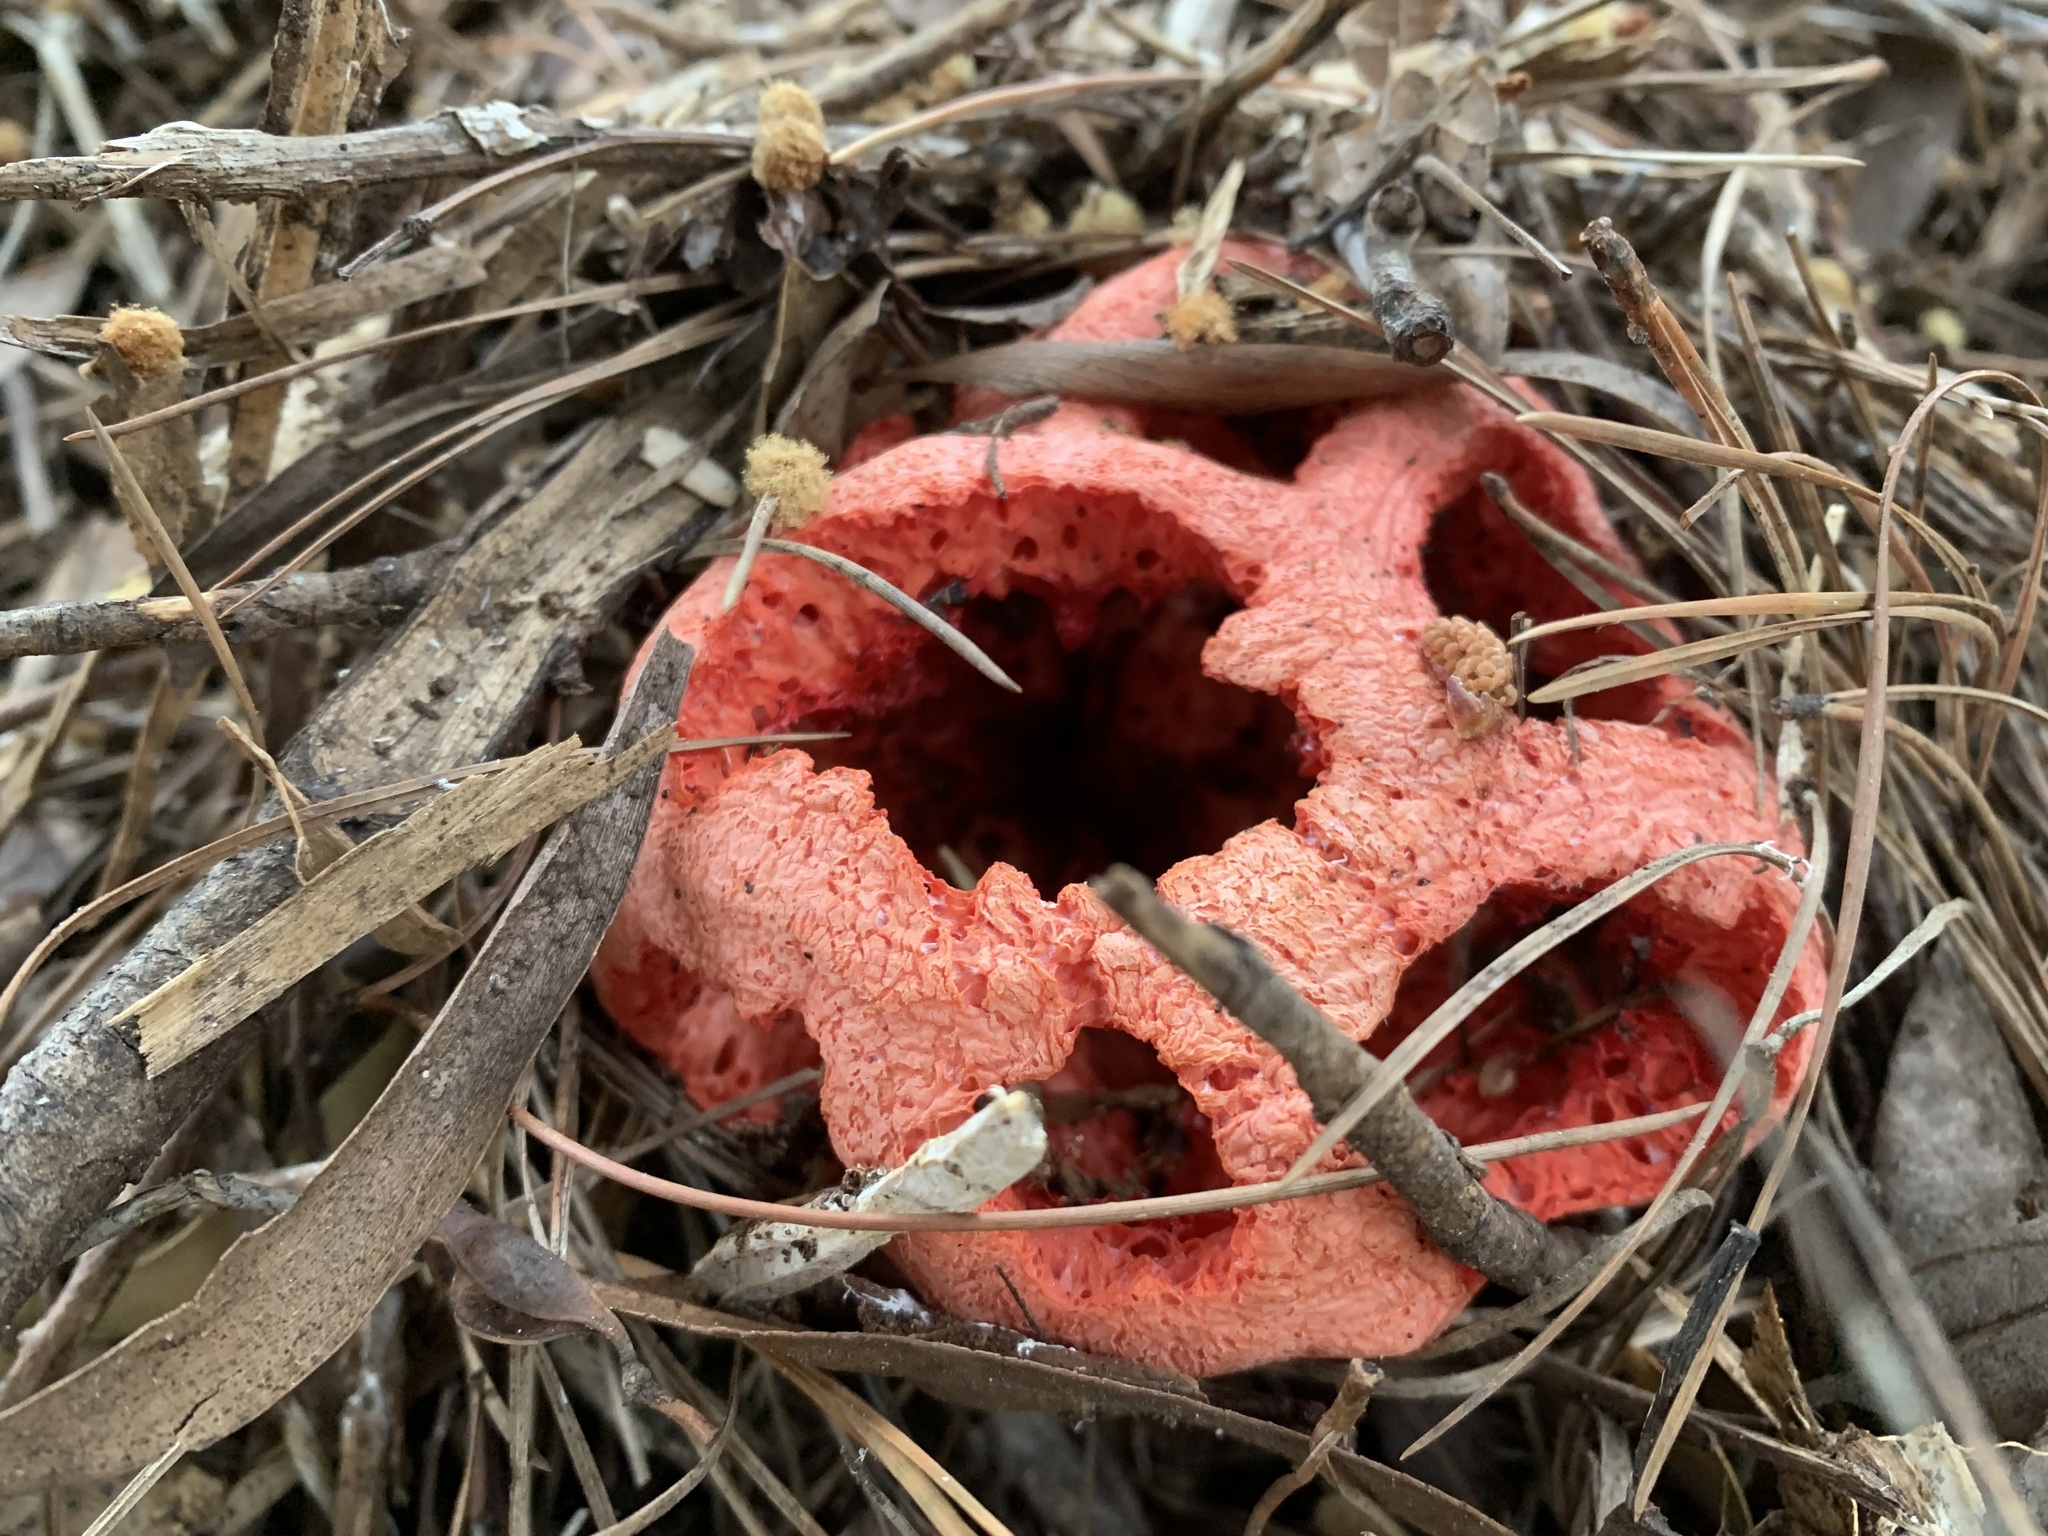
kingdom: Fungi
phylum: Basidiomycota
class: Agaricomycetes
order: Phallales
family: Phallaceae
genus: Clathrus
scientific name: Clathrus ruber
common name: Red cage
